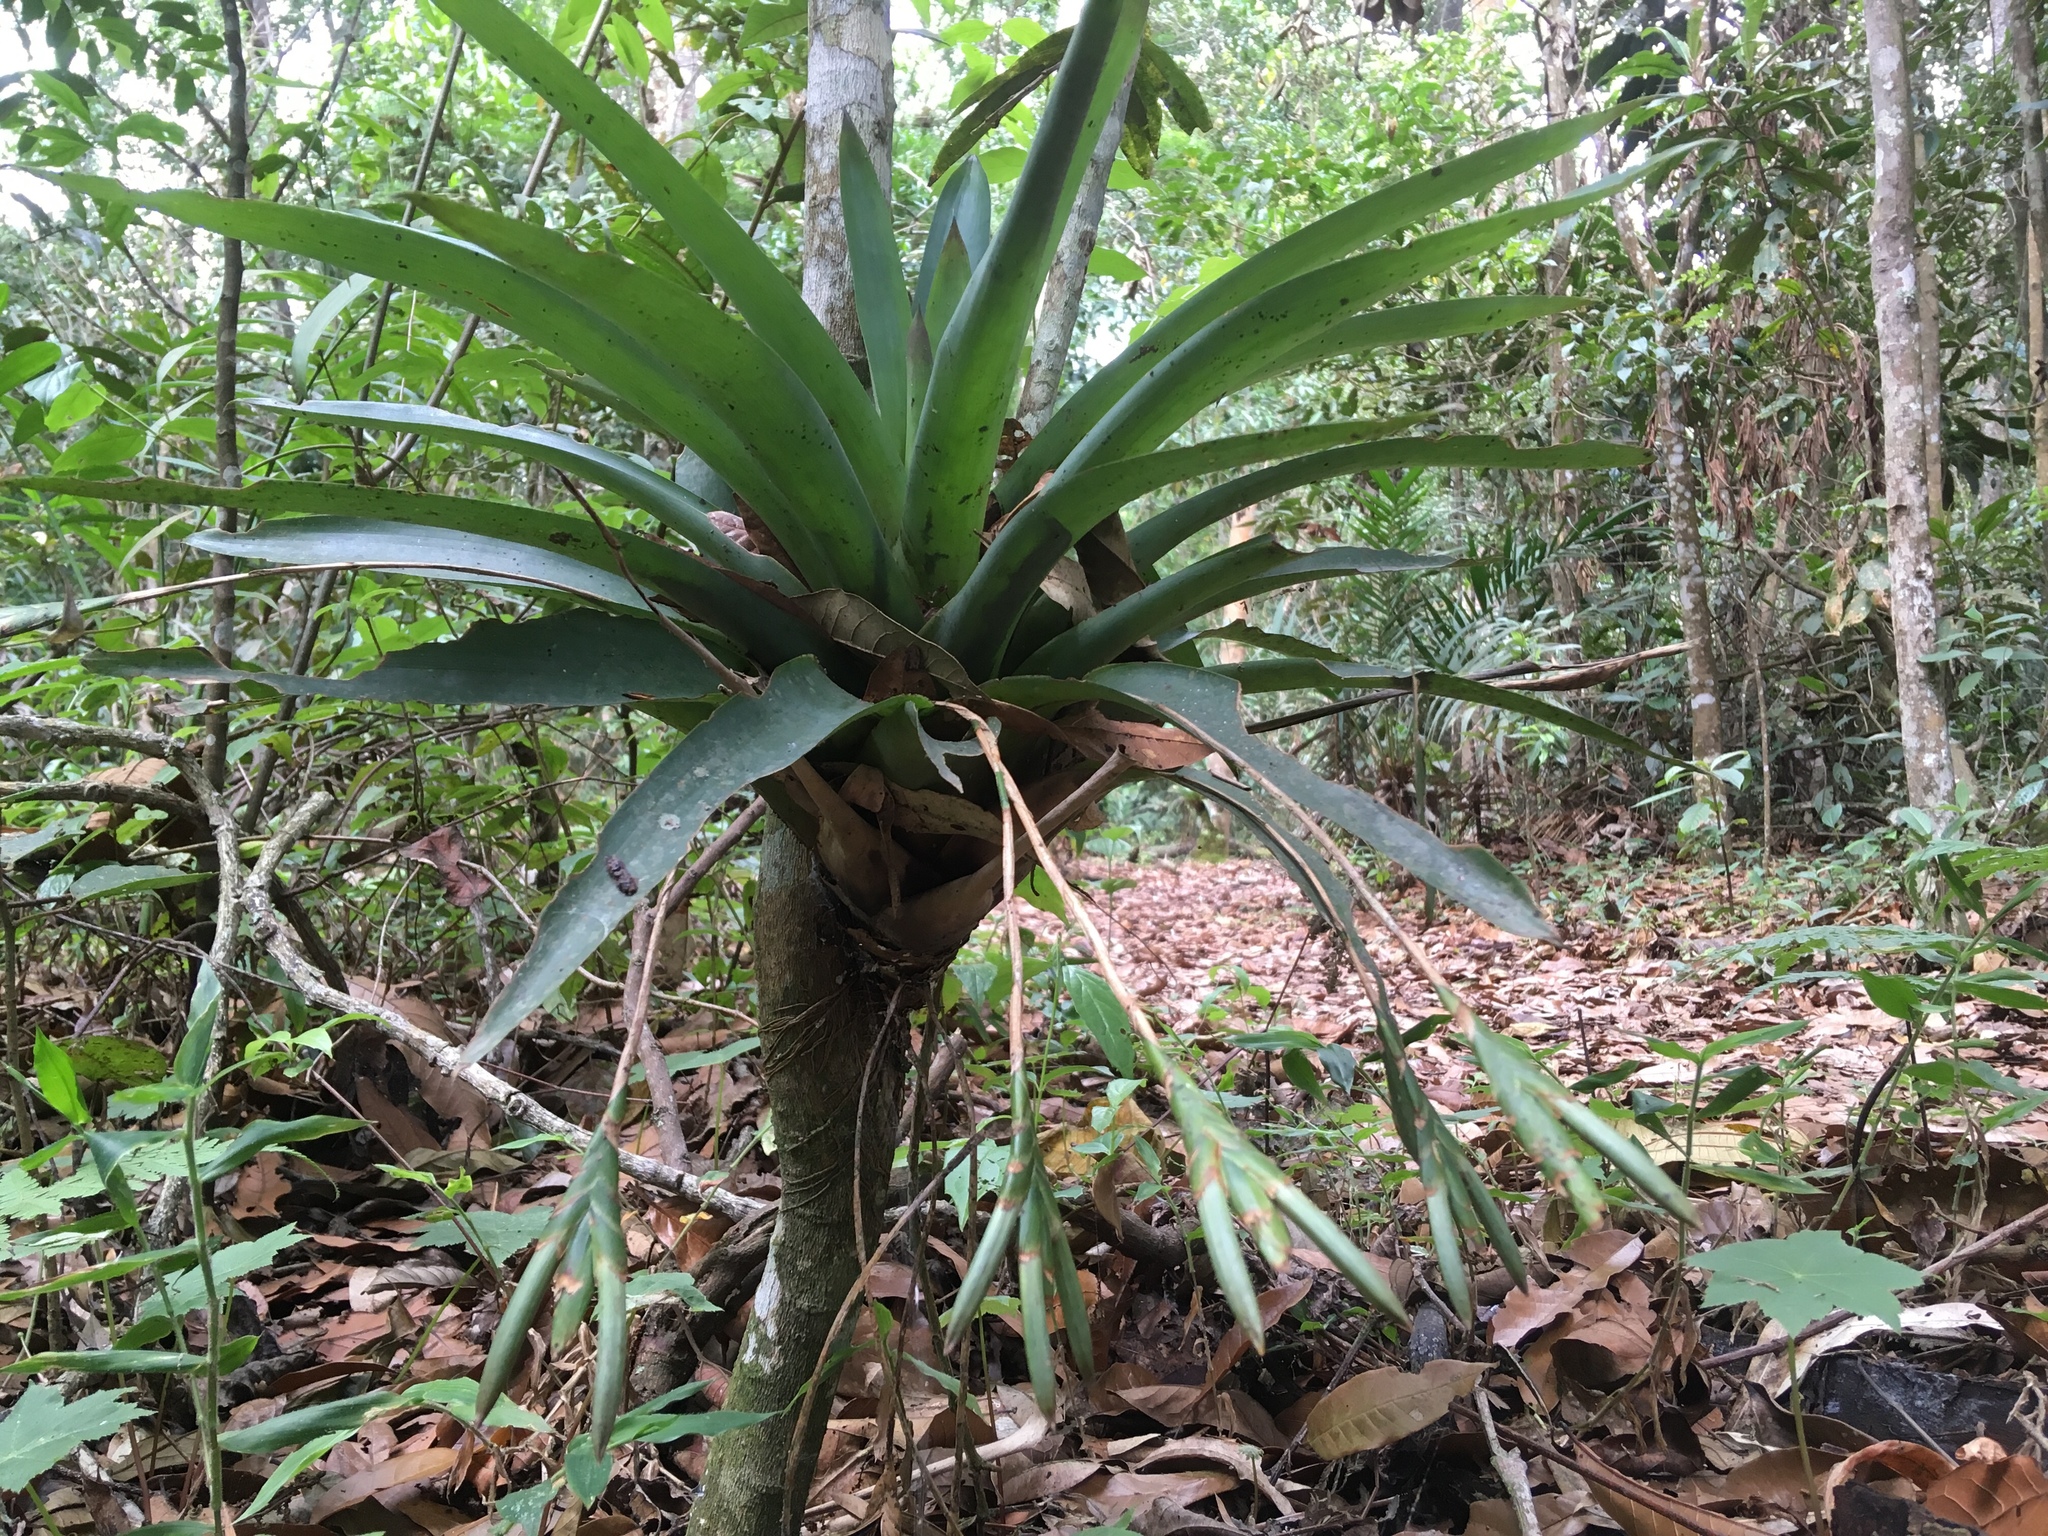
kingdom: Plantae
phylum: Tracheophyta
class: Liliopsida
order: Poales
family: Bromeliaceae
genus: Tillandsia
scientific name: Tillandsia complanata
